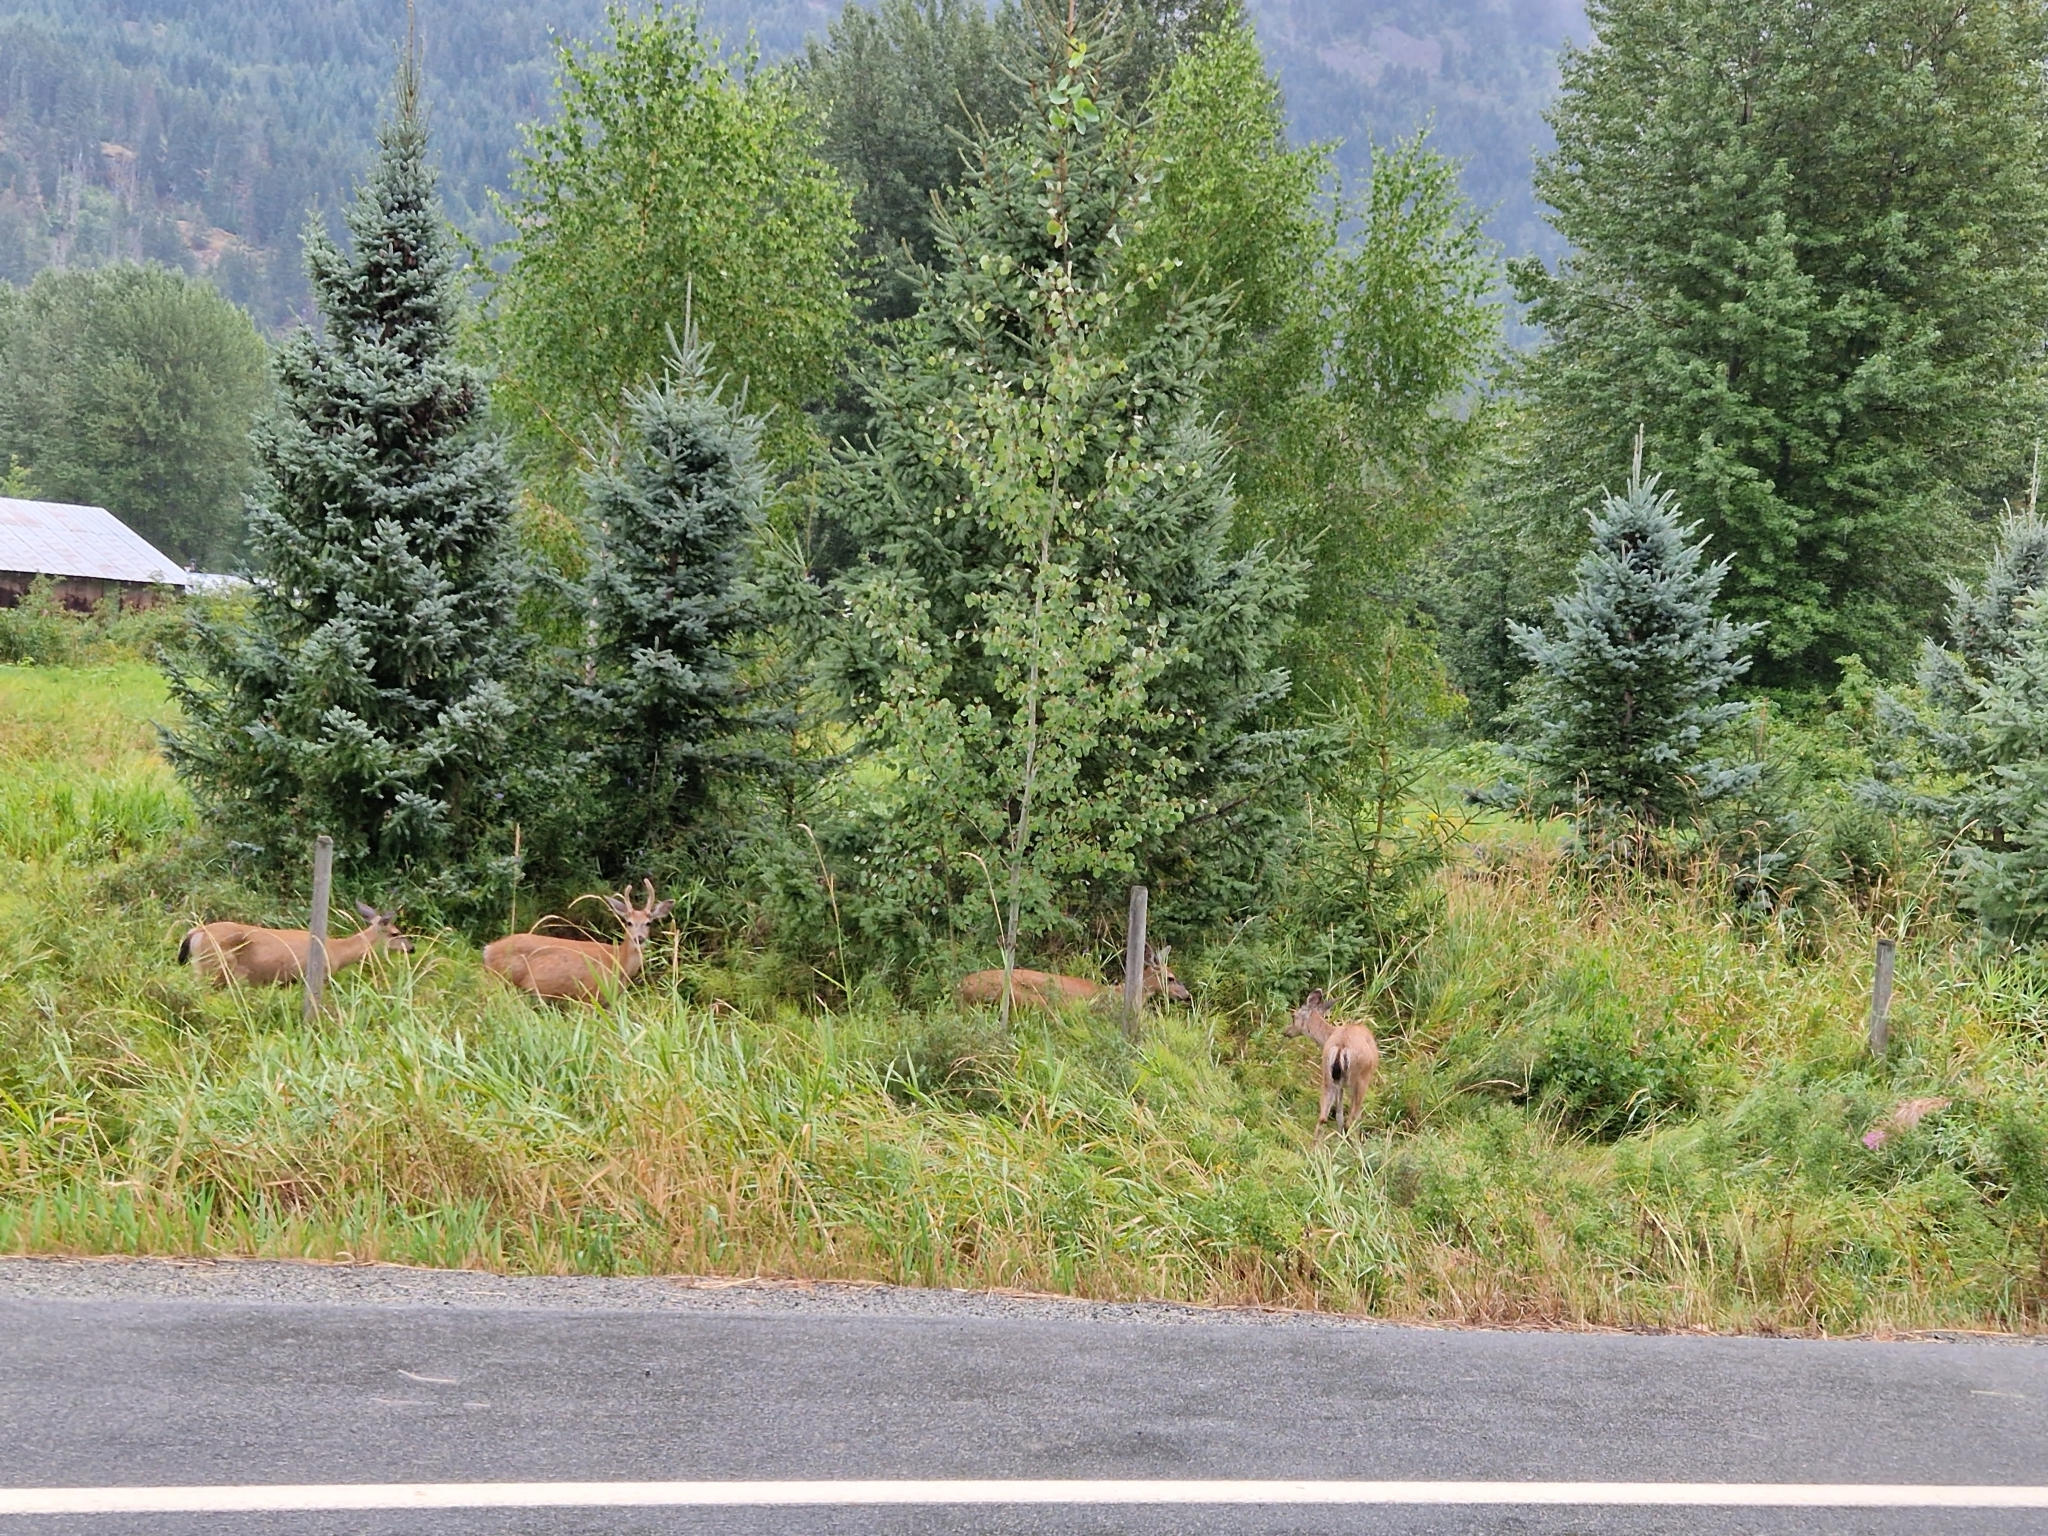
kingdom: Animalia
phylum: Chordata
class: Mammalia
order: Artiodactyla
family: Cervidae
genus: Odocoileus
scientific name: Odocoileus hemionus
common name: Mule deer
